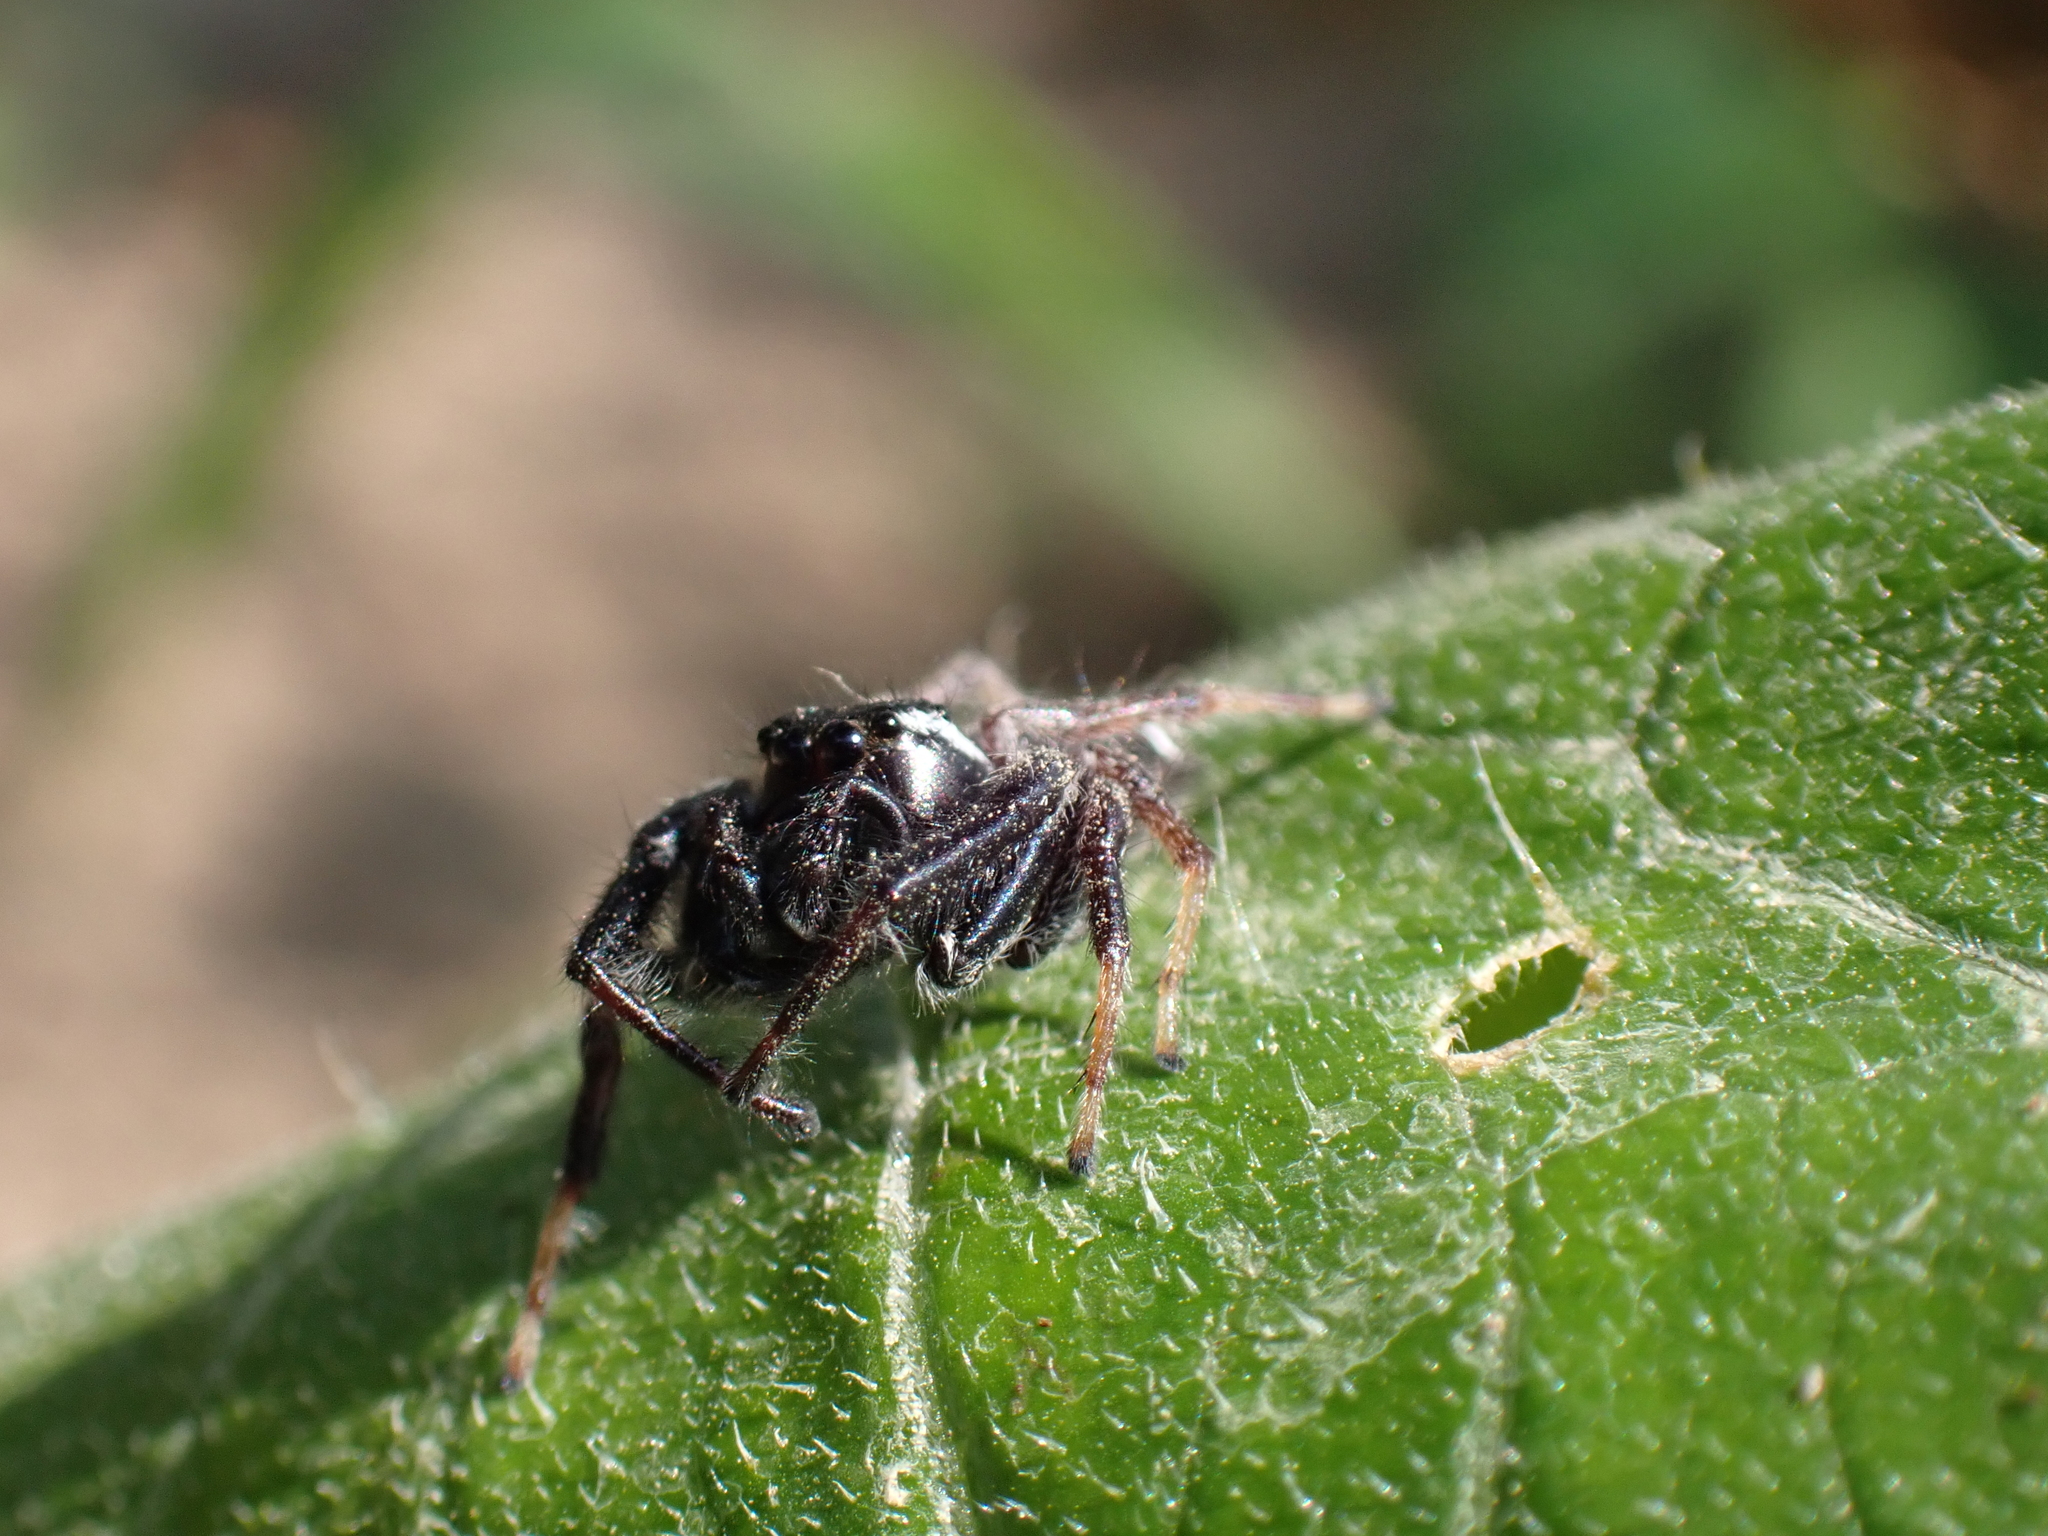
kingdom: Animalia
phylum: Arthropoda
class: Arachnida
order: Araneae
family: Salticidae
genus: Paraphidippus
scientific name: Paraphidippus aurantius
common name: Jumping spiders
